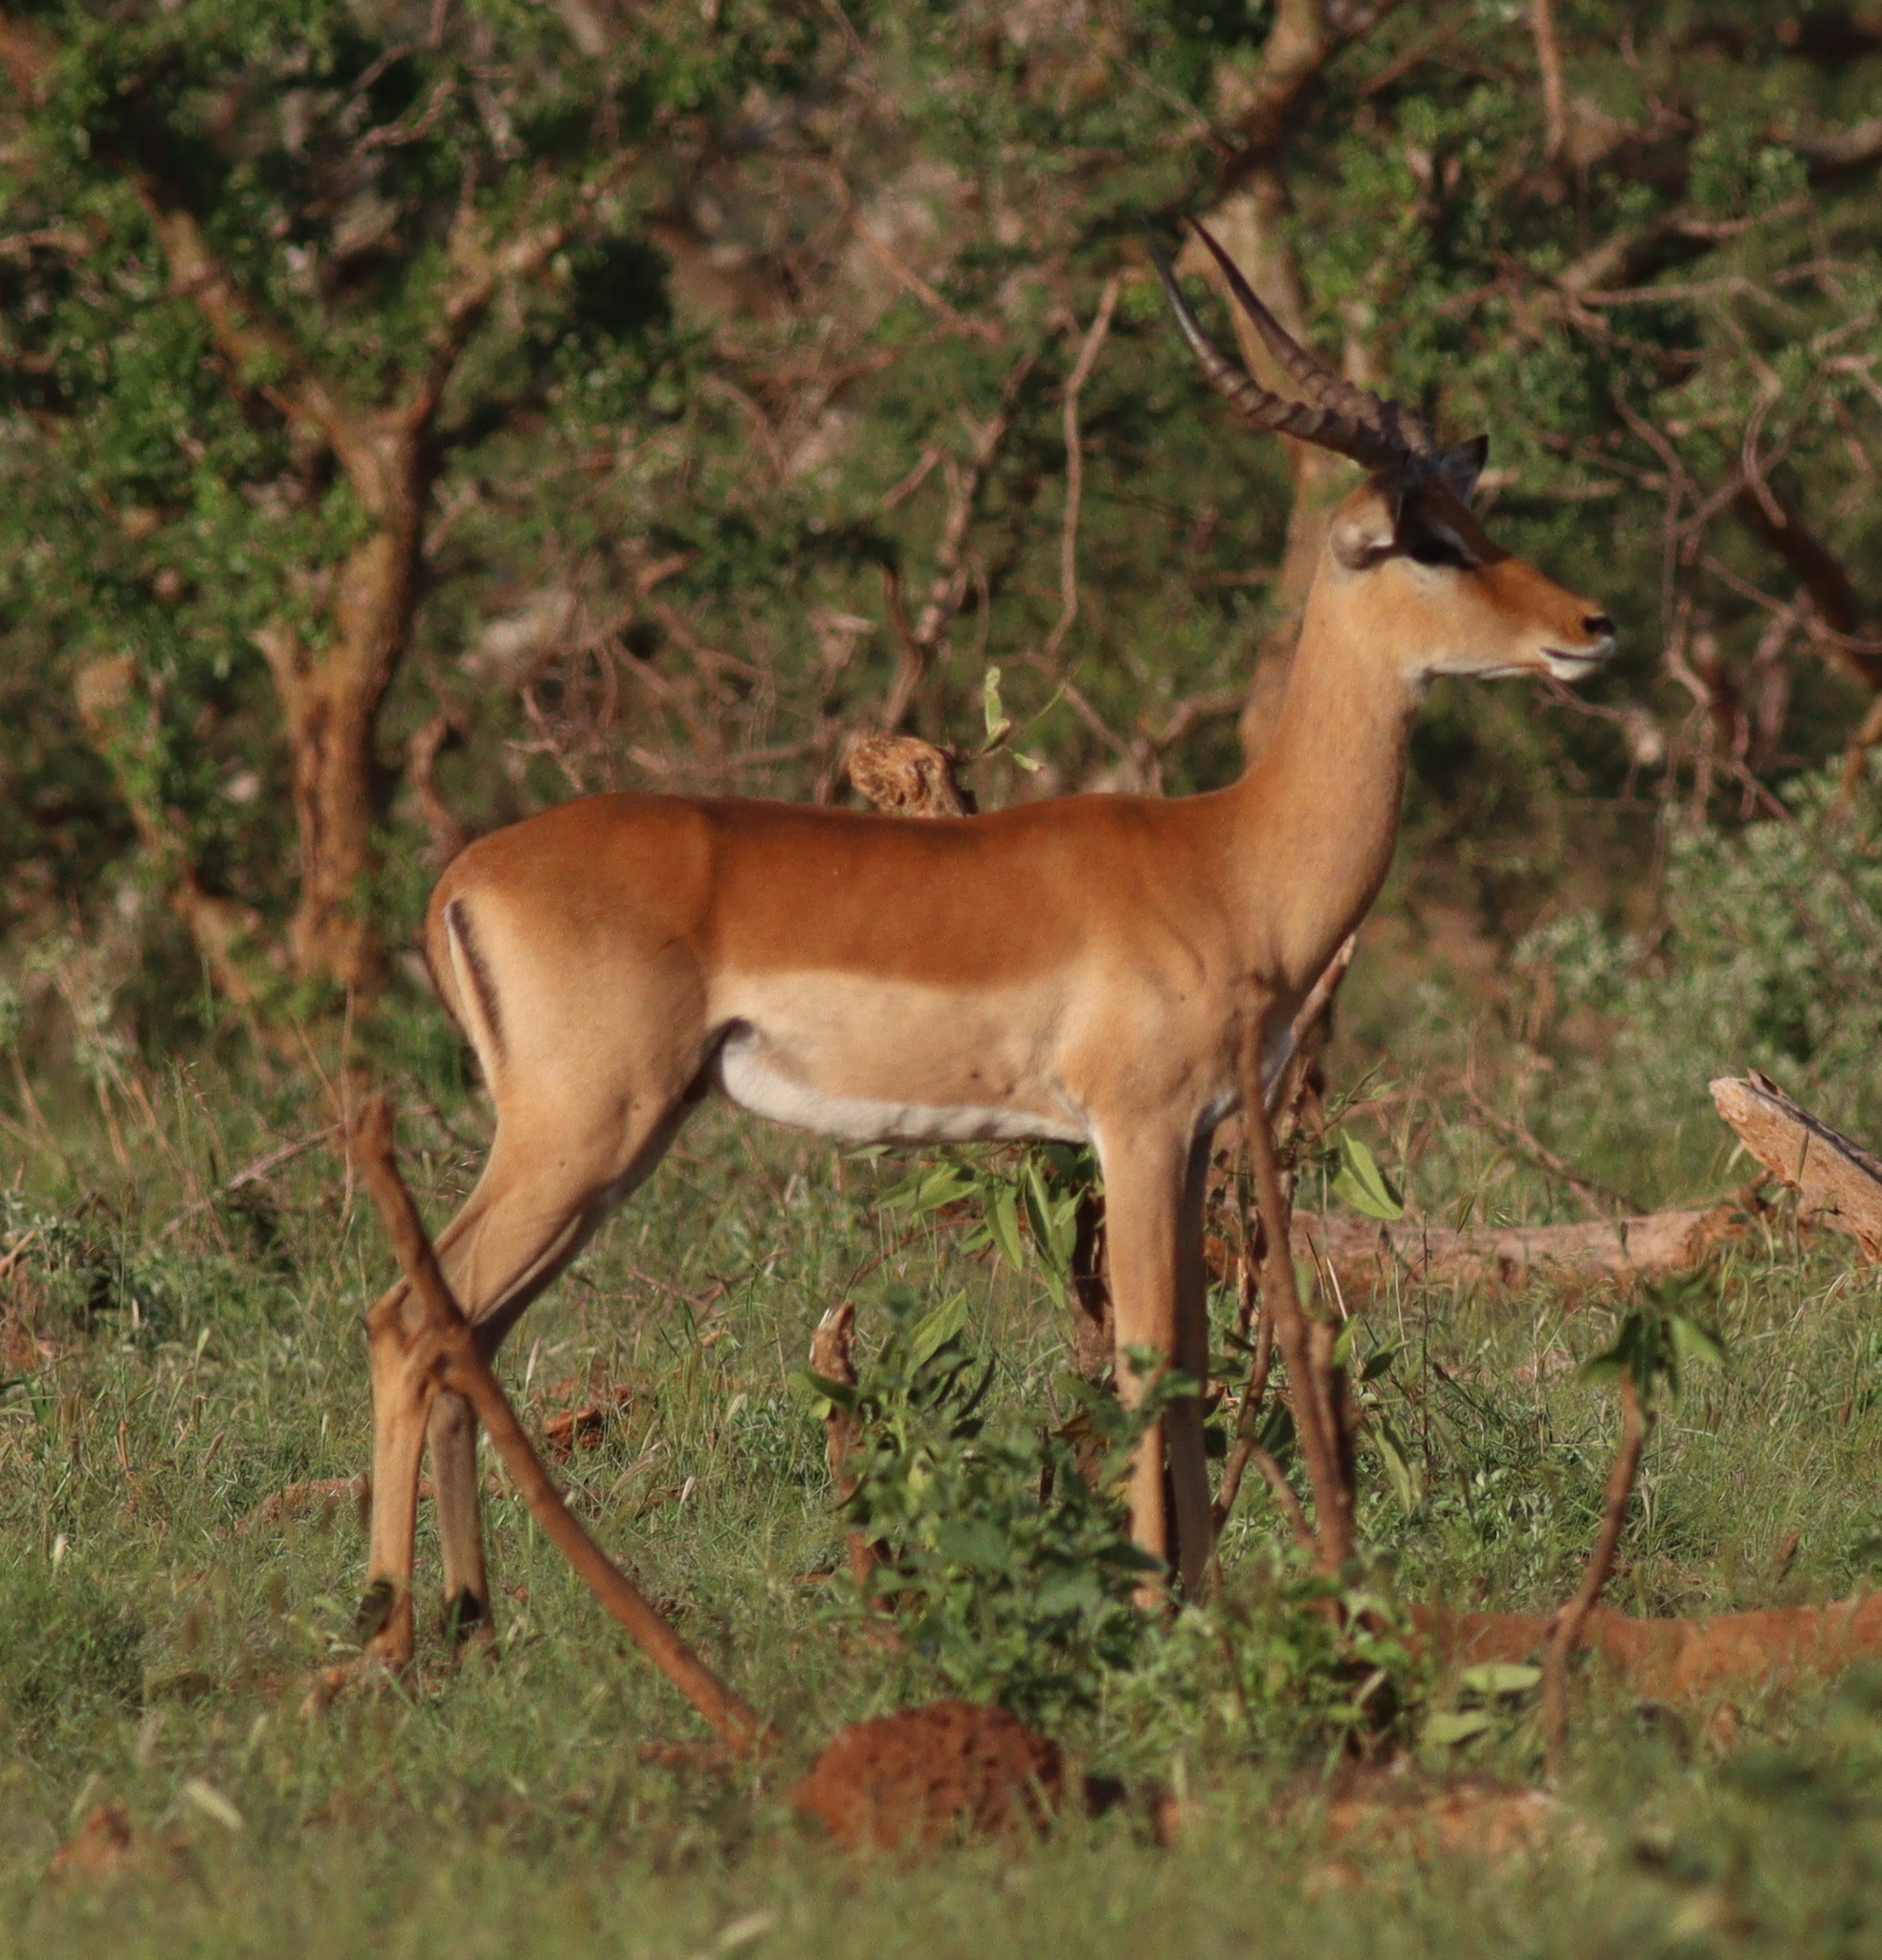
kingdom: Animalia
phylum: Chordata
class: Mammalia
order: Artiodactyla
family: Bovidae
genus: Aepyceros
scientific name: Aepyceros melampus
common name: Impala
